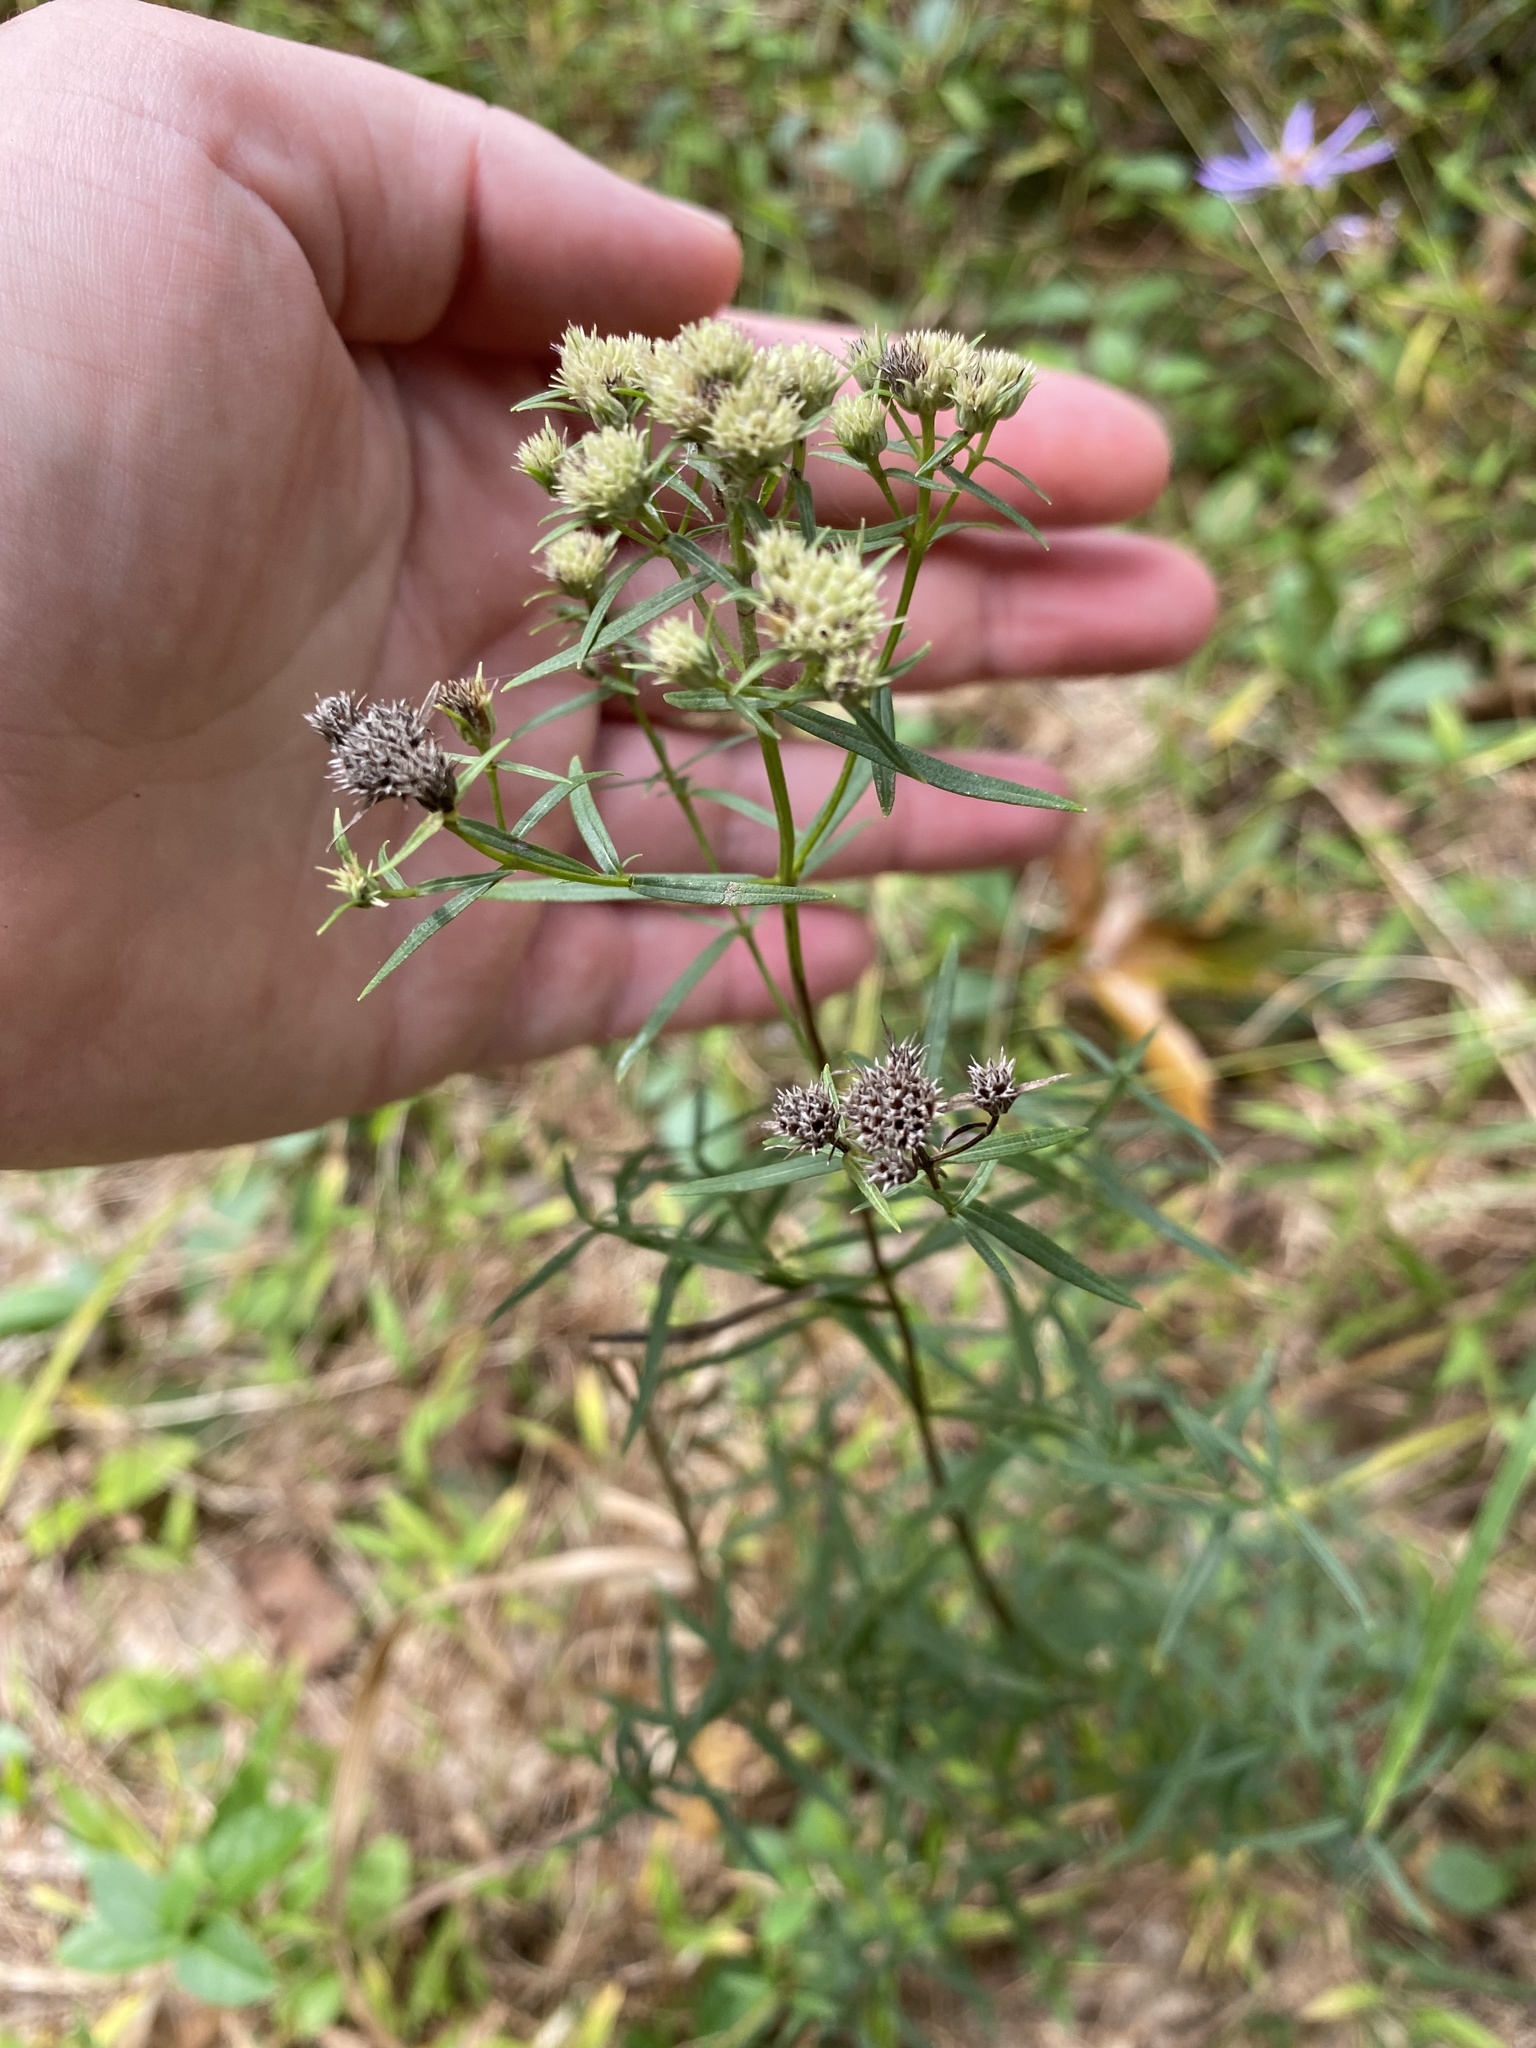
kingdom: Plantae
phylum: Tracheophyta
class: Magnoliopsida
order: Lamiales
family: Lamiaceae
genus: Pycnanthemum
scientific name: Pycnanthemum tenuifolium
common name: Narrow-leaf mountain-mint
